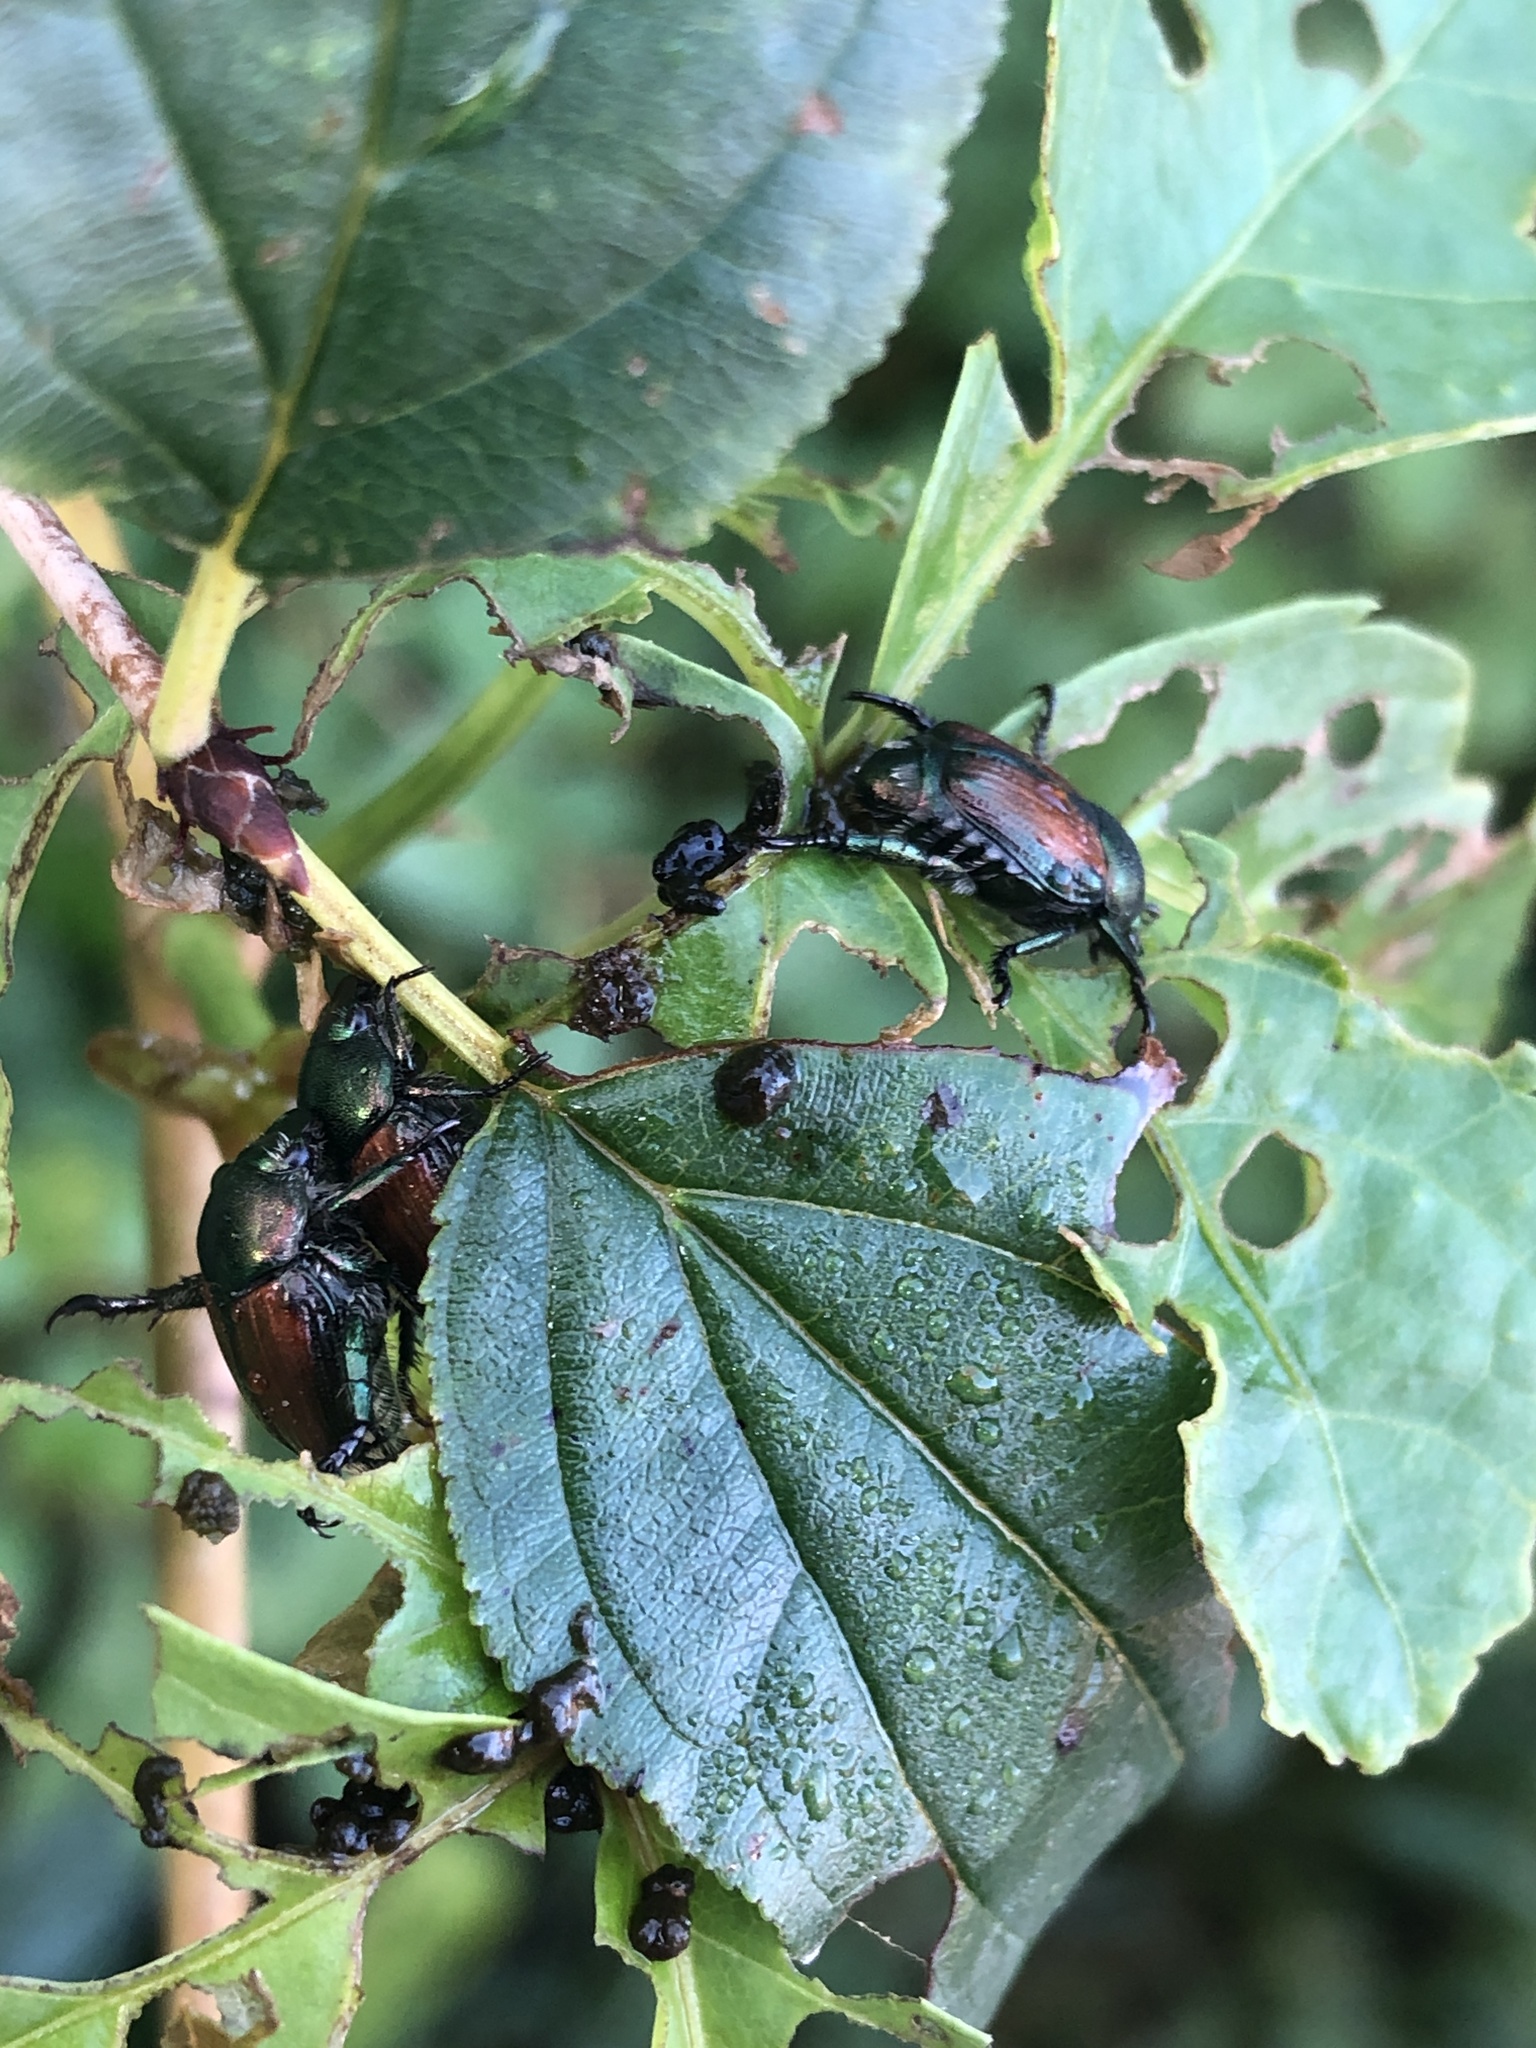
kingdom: Animalia
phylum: Arthropoda
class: Insecta
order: Coleoptera
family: Scarabaeidae
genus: Popillia
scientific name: Popillia japonica
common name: Japanese beetle
